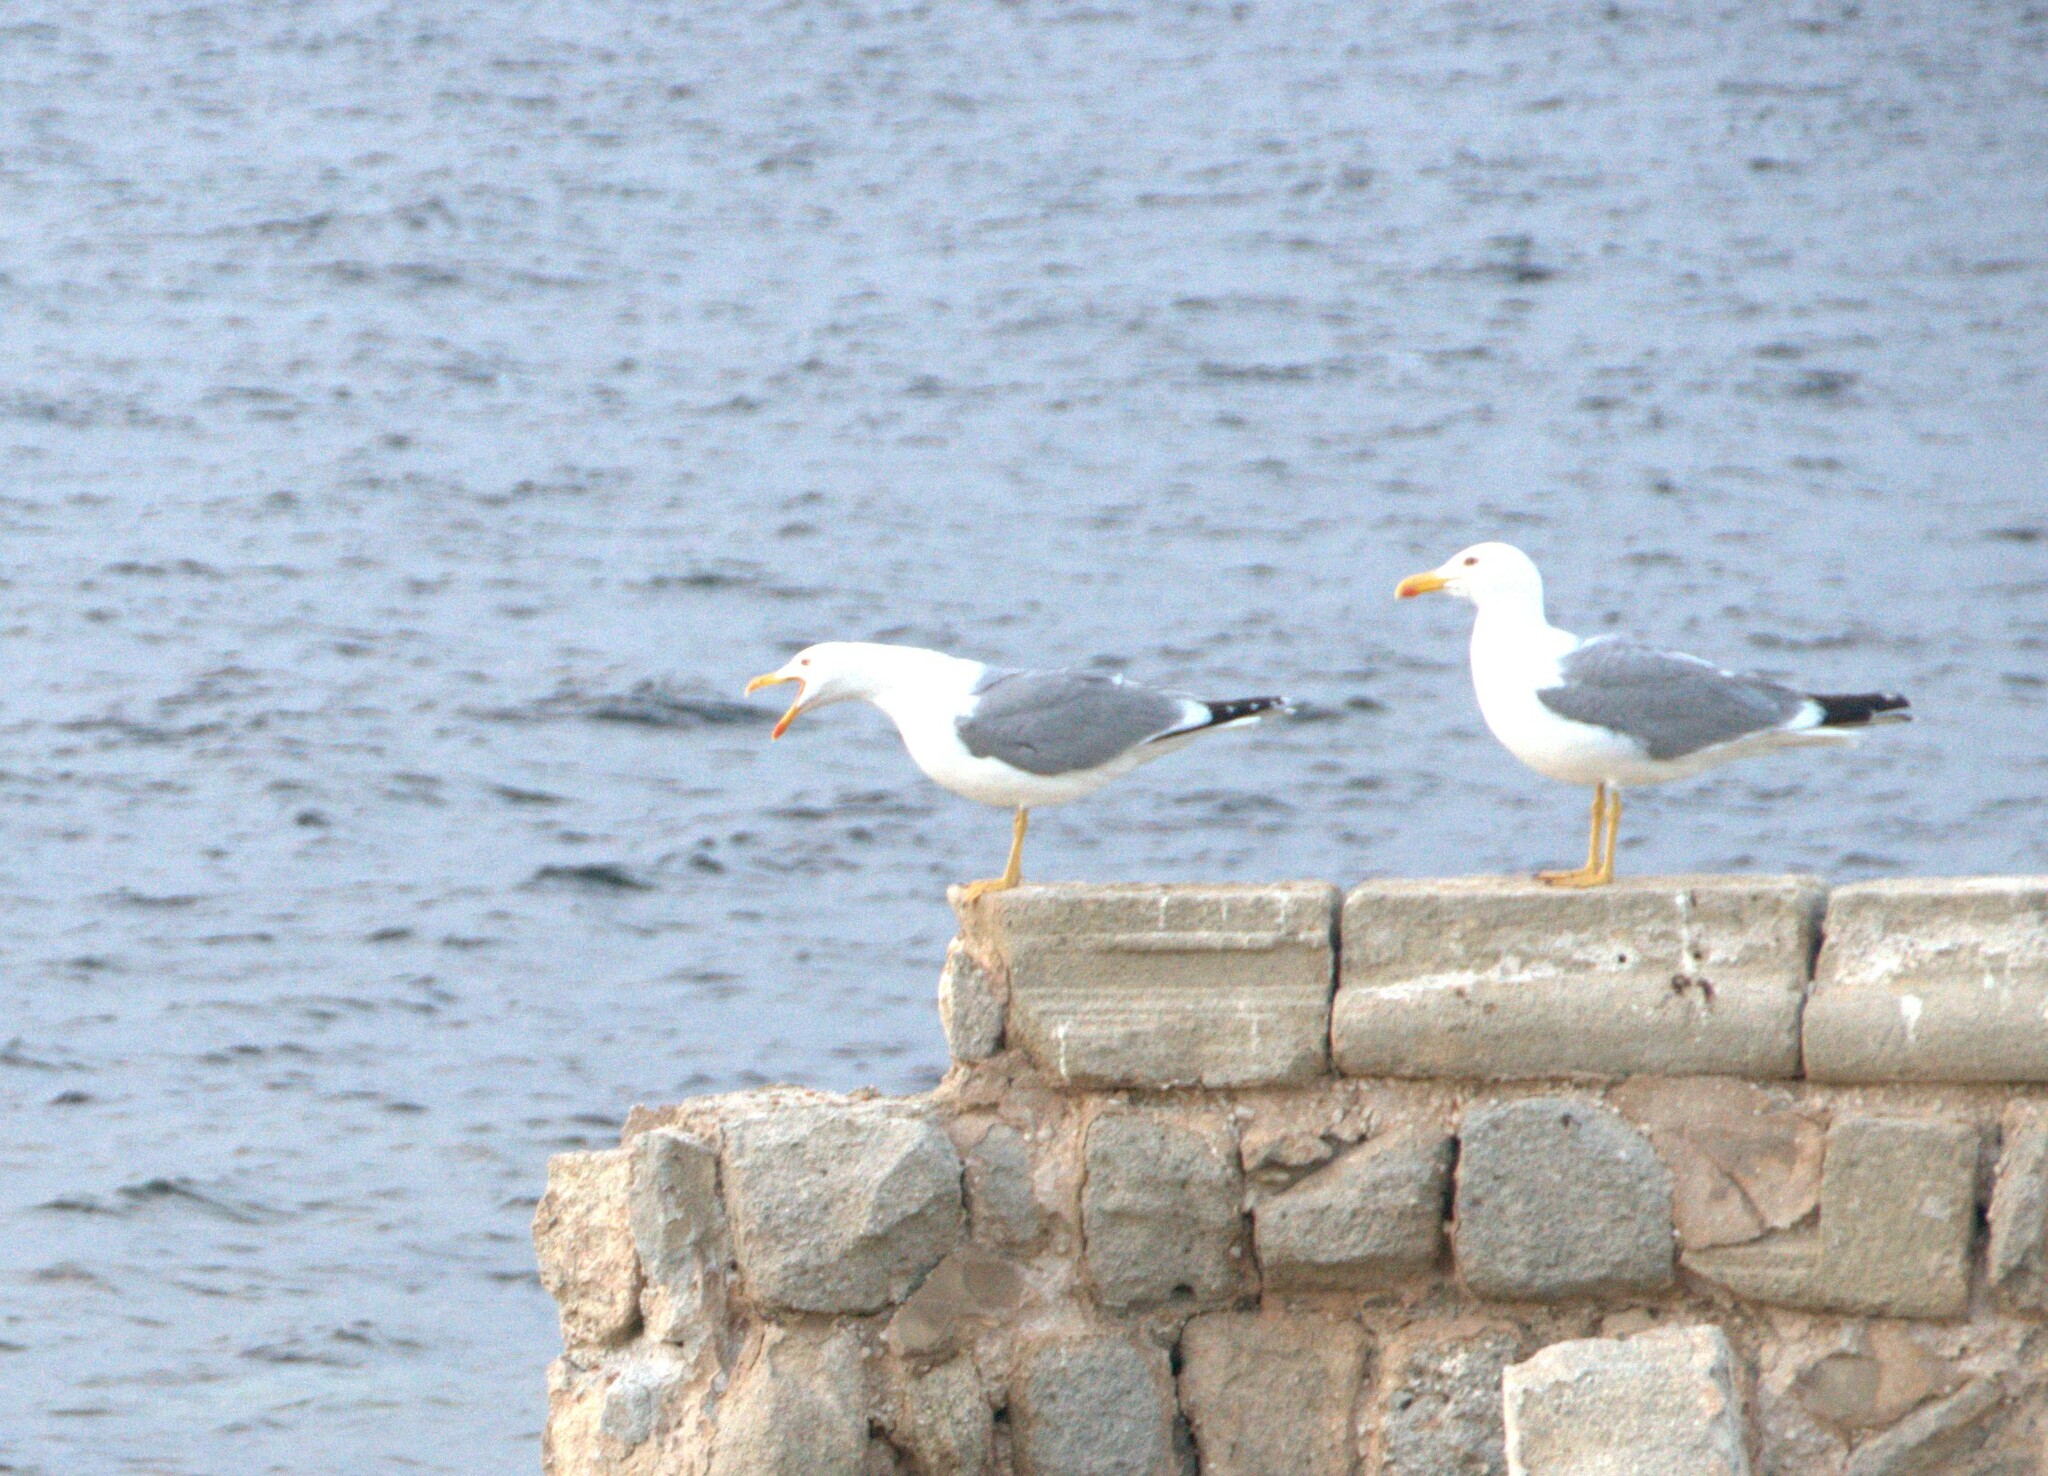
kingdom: Animalia
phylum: Chordata
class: Aves
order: Charadriiformes
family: Laridae
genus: Larus
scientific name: Larus michahellis
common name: Yellow-legged gull
